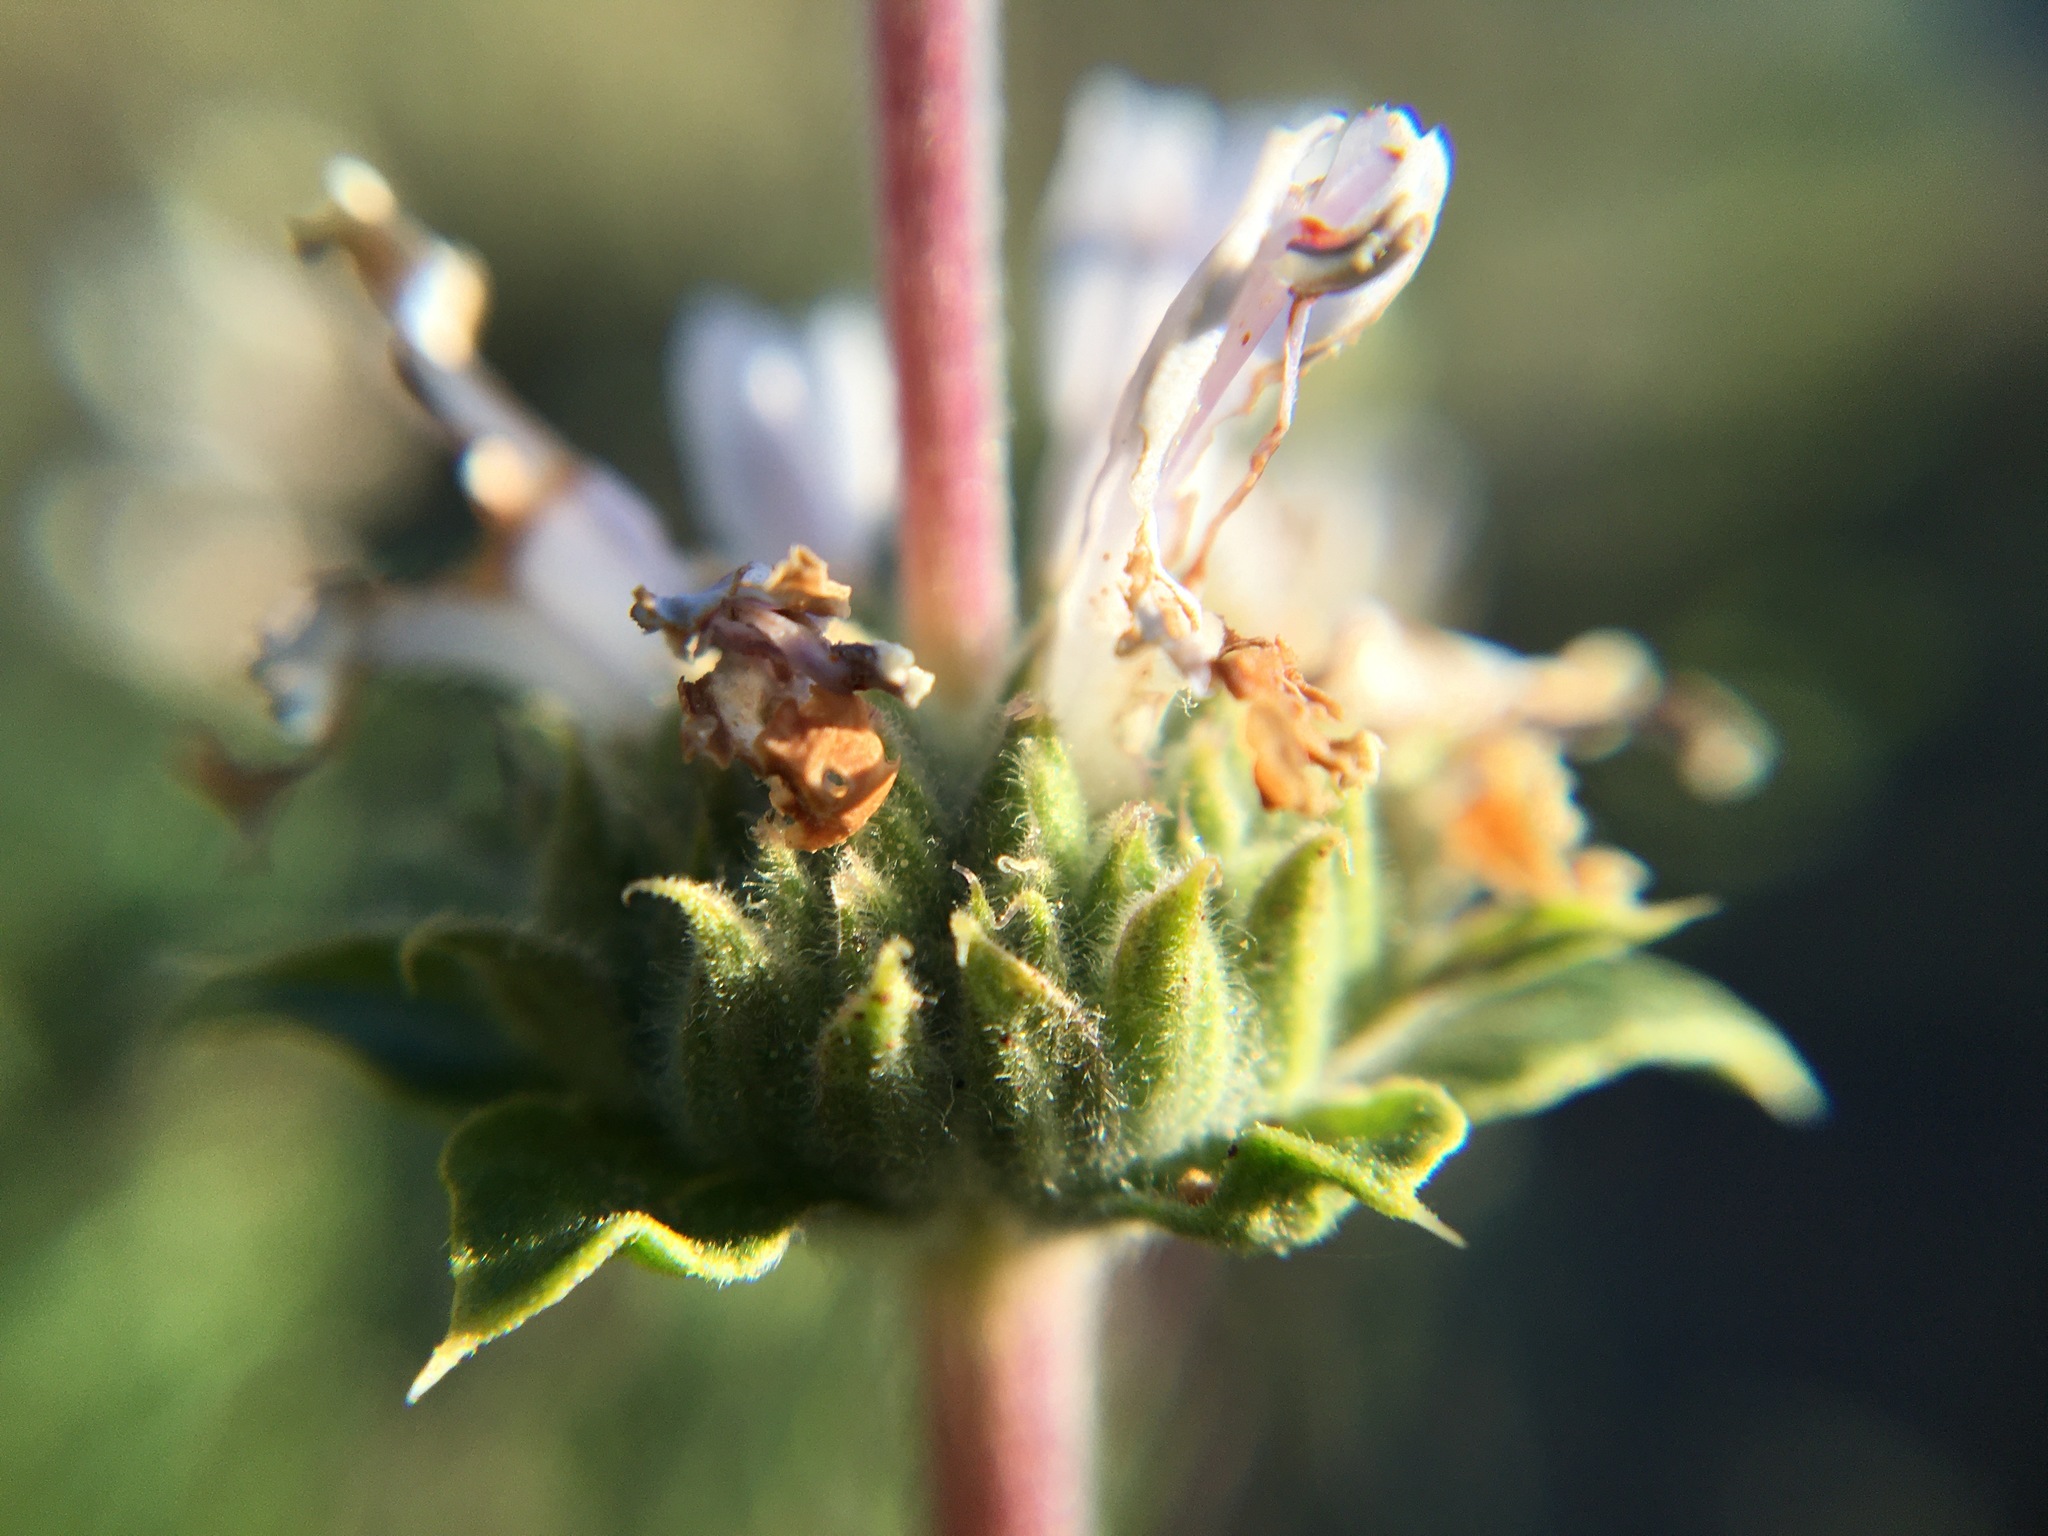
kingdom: Plantae
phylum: Tracheophyta
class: Magnoliopsida
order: Lamiales
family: Lamiaceae
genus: Salvia
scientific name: Salvia mellifera
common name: Black sage
